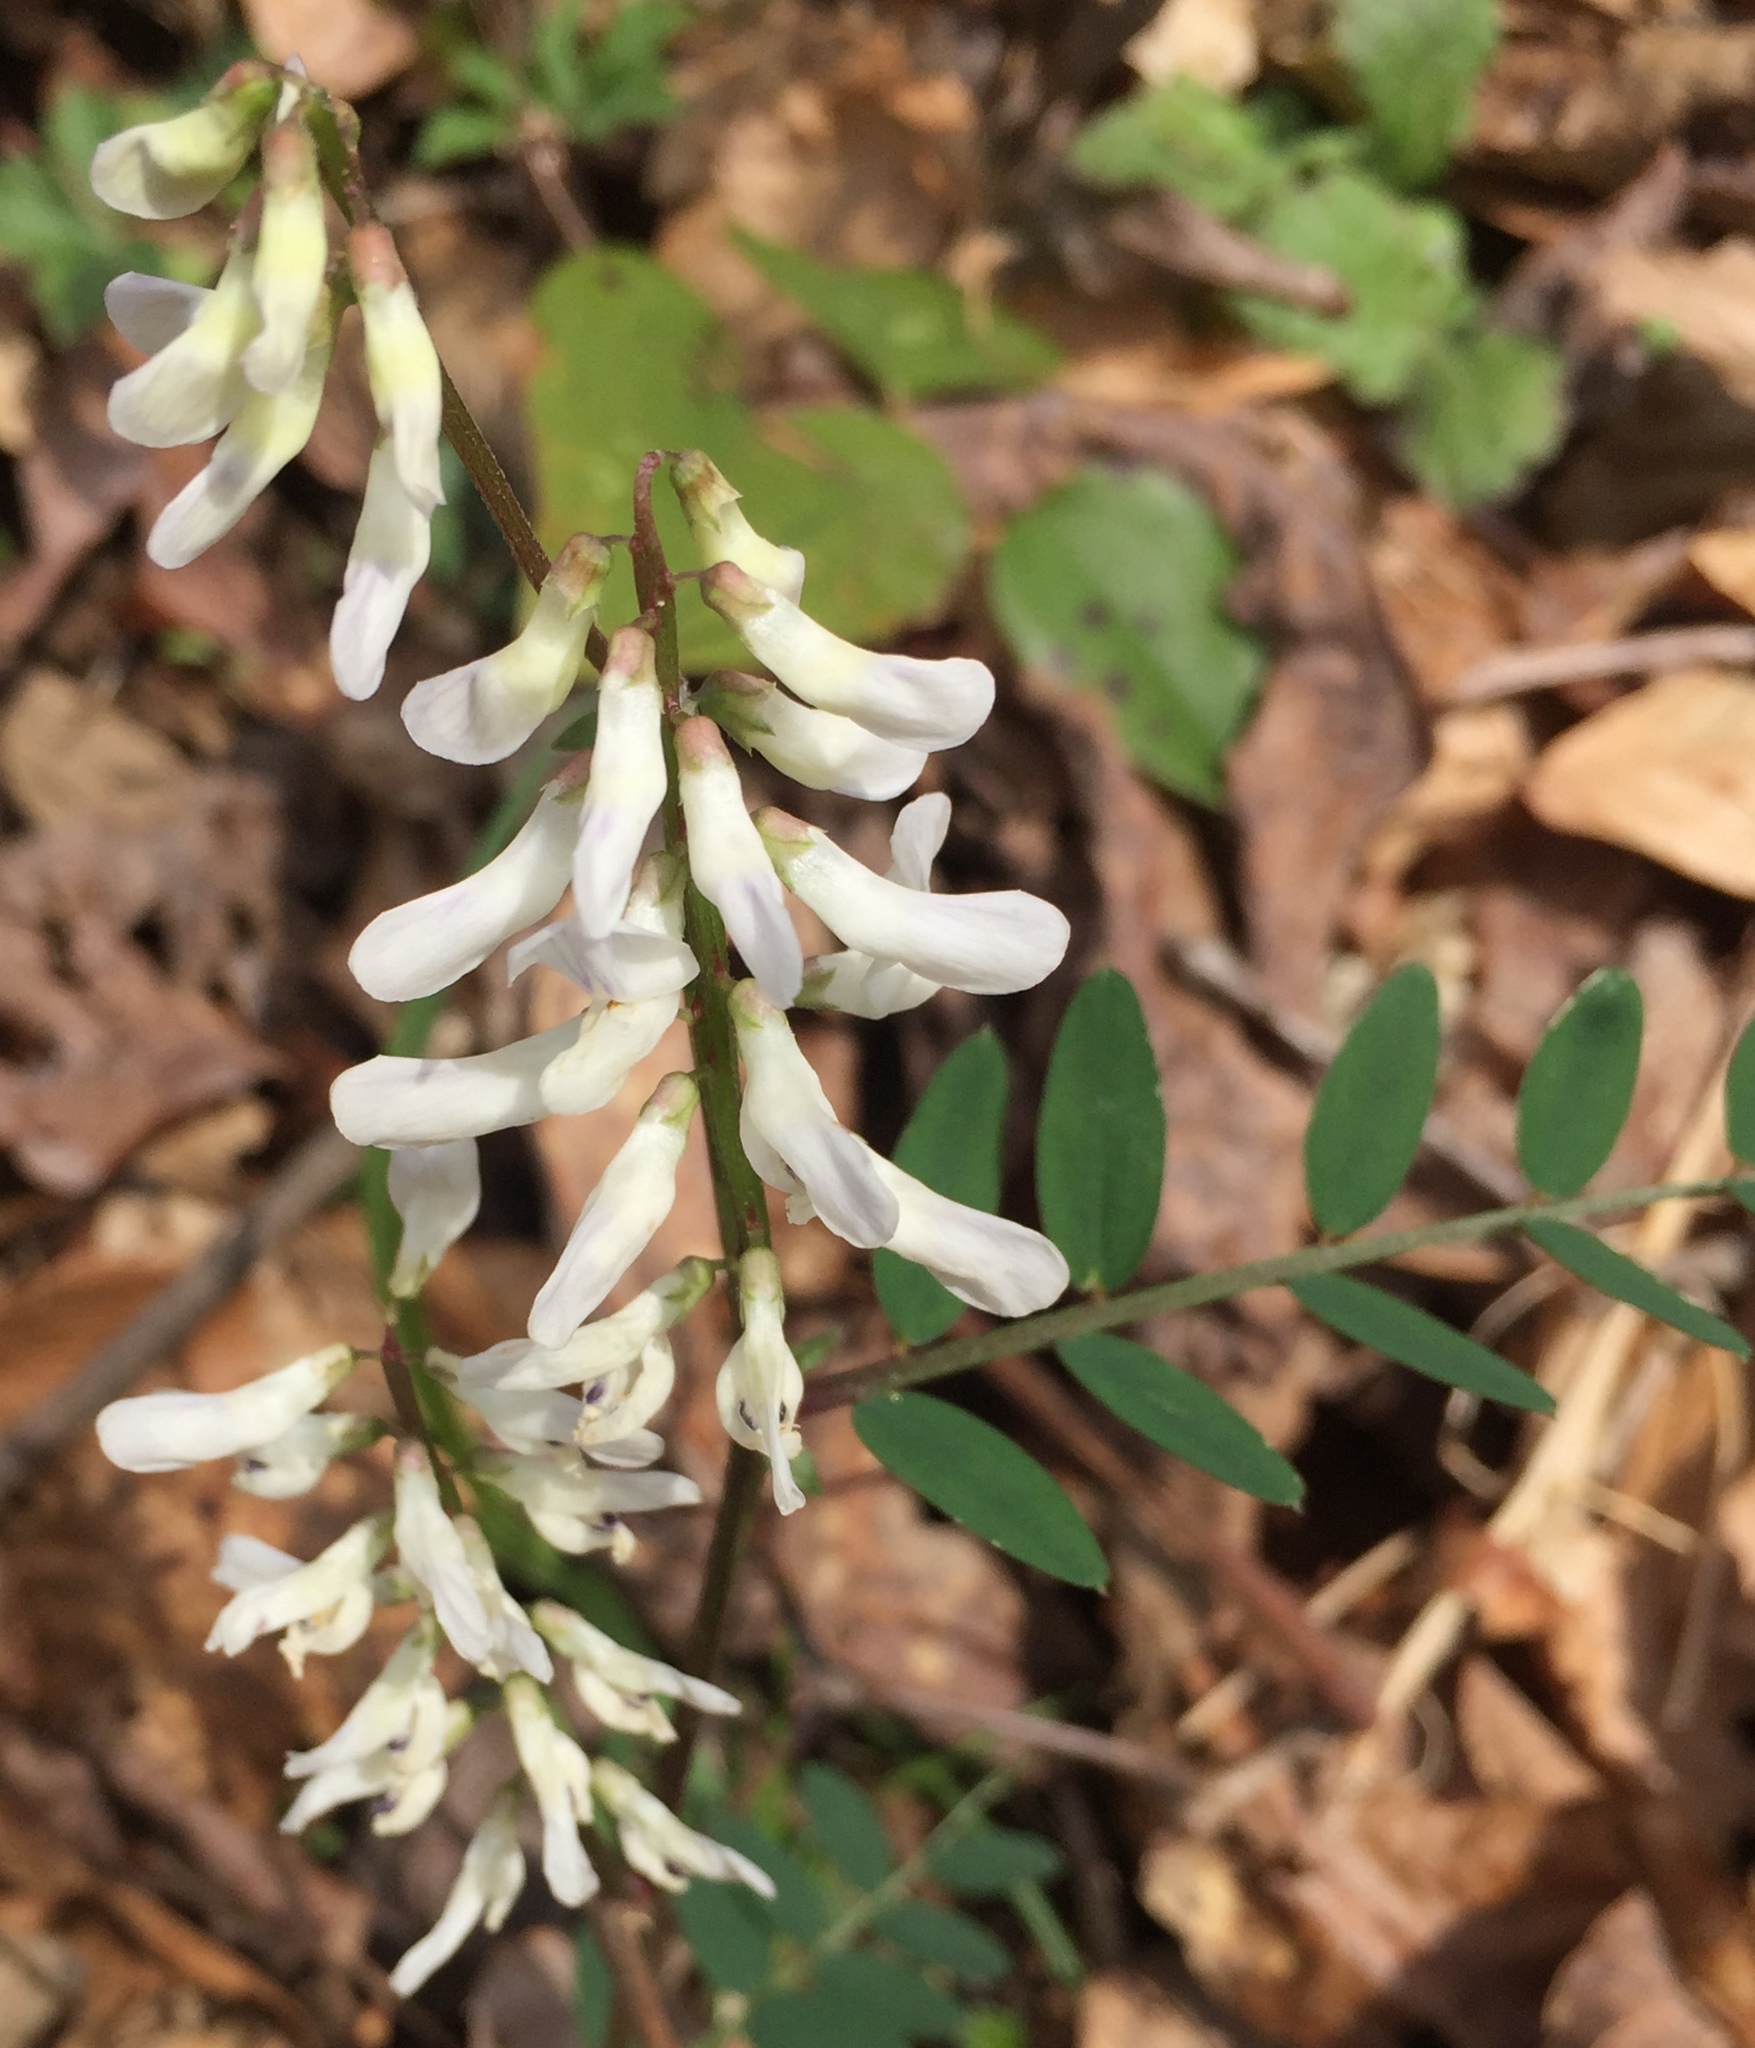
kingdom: Plantae
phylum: Tracheophyta
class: Magnoliopsida
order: Fabales
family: Fabaceae
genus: Vicia
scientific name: Vicia caroliniana
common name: Carolina vetch
